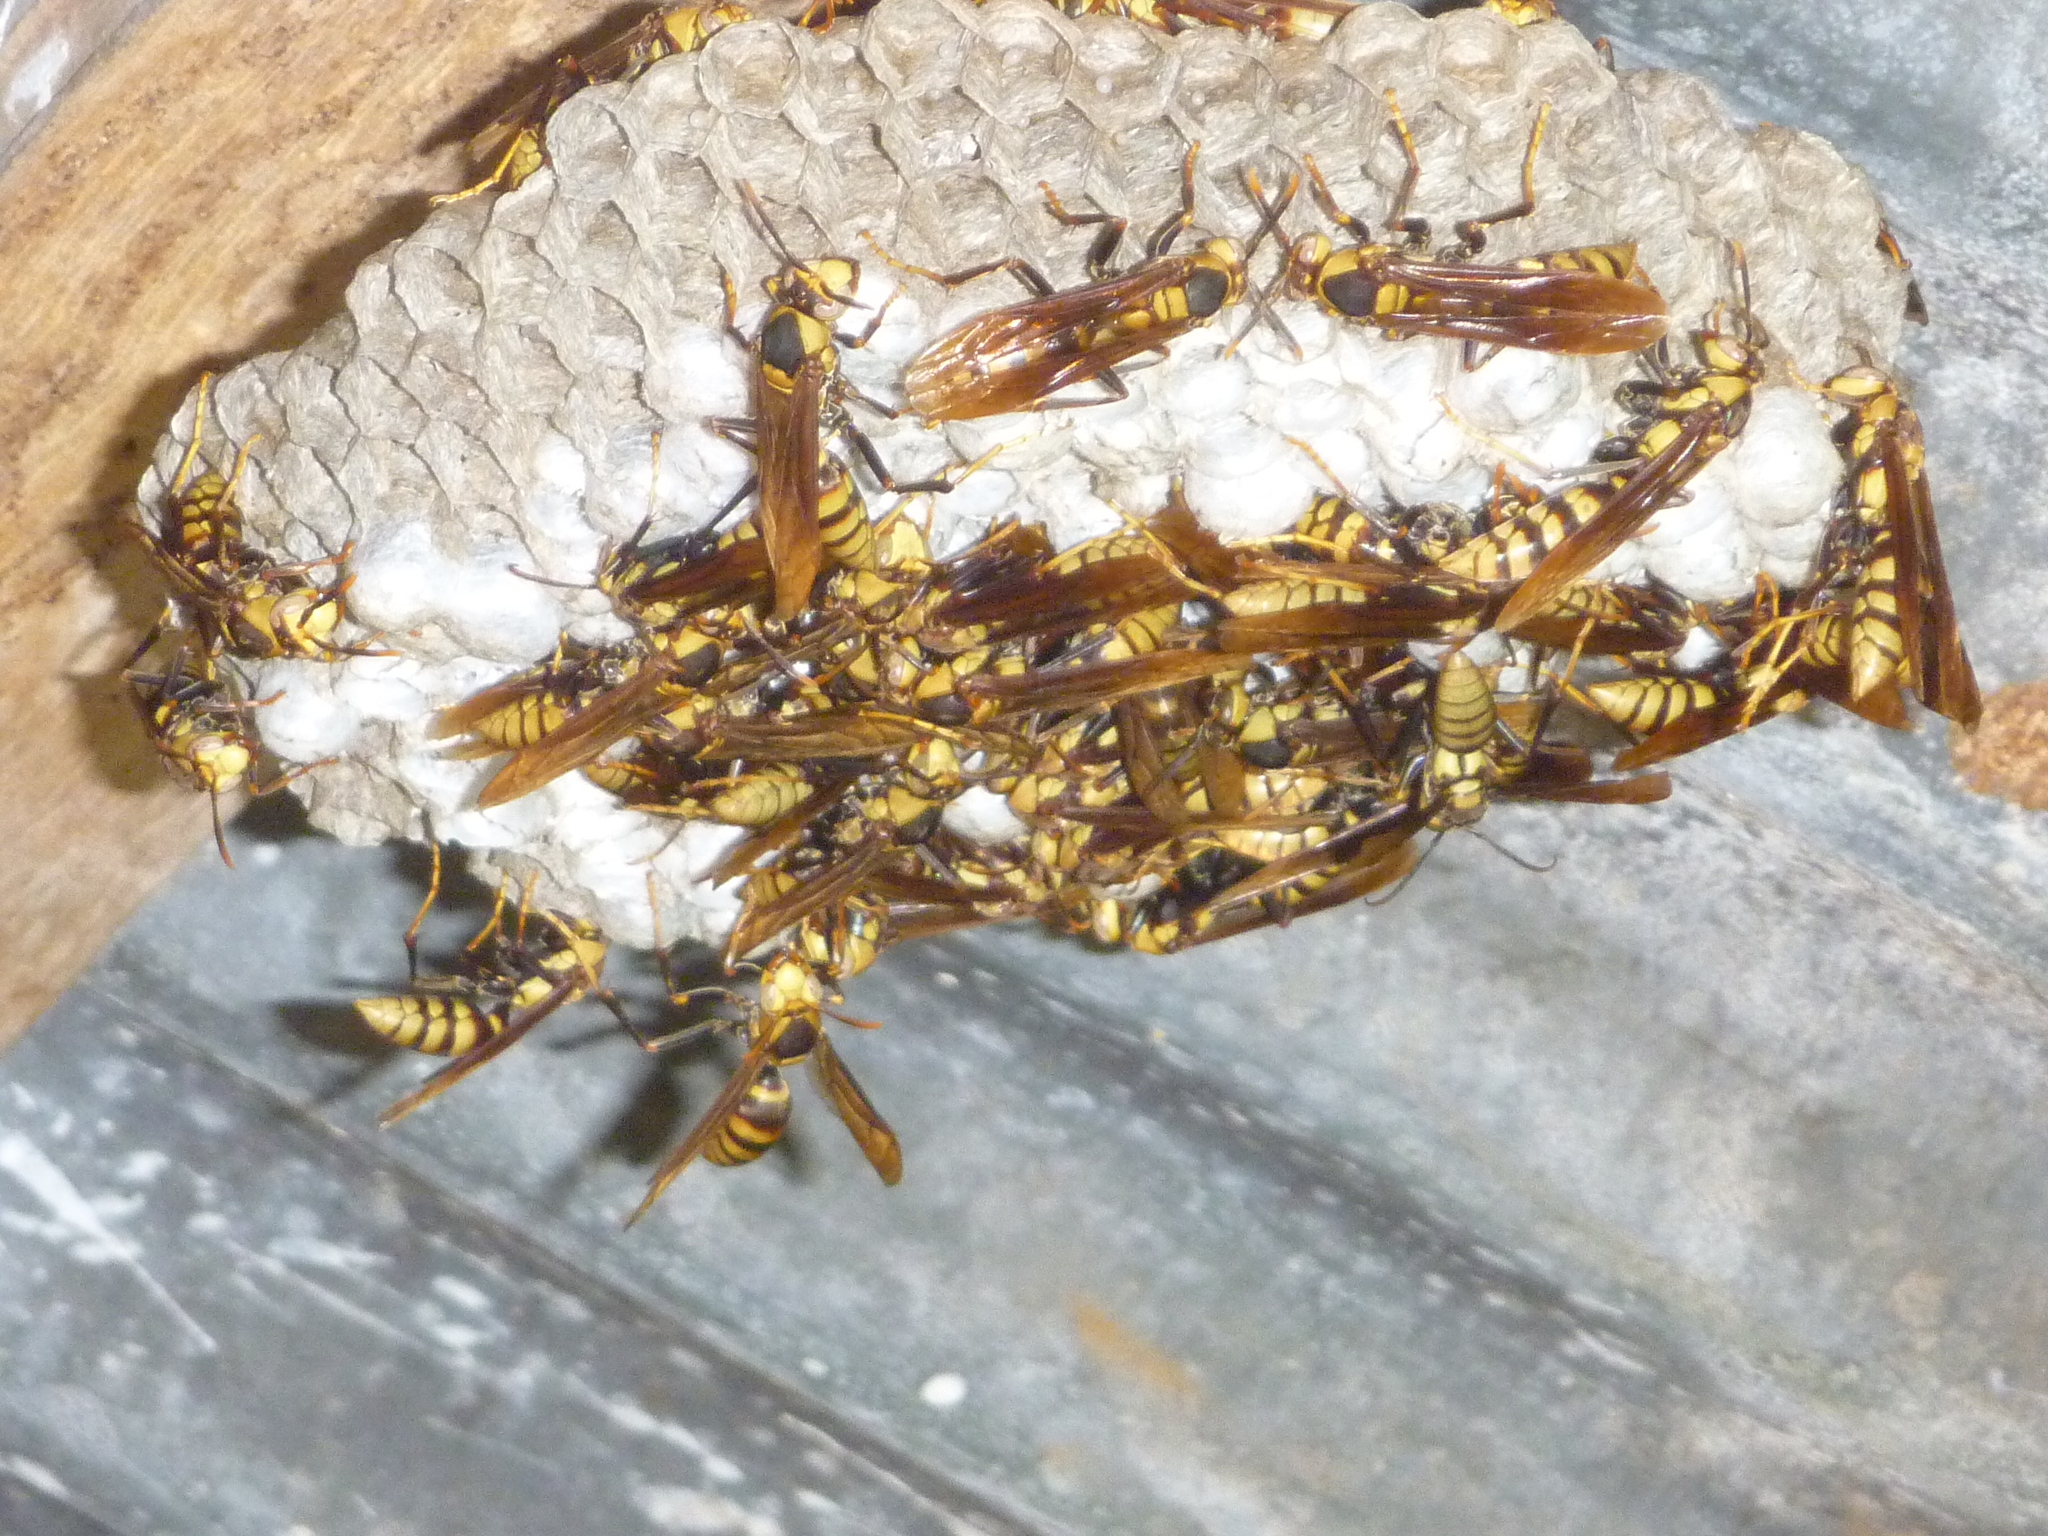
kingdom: Animalia
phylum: Arthropoda
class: Insecta
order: Hymenoptera
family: Eumenidae
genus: Polistes
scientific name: Polistes major
